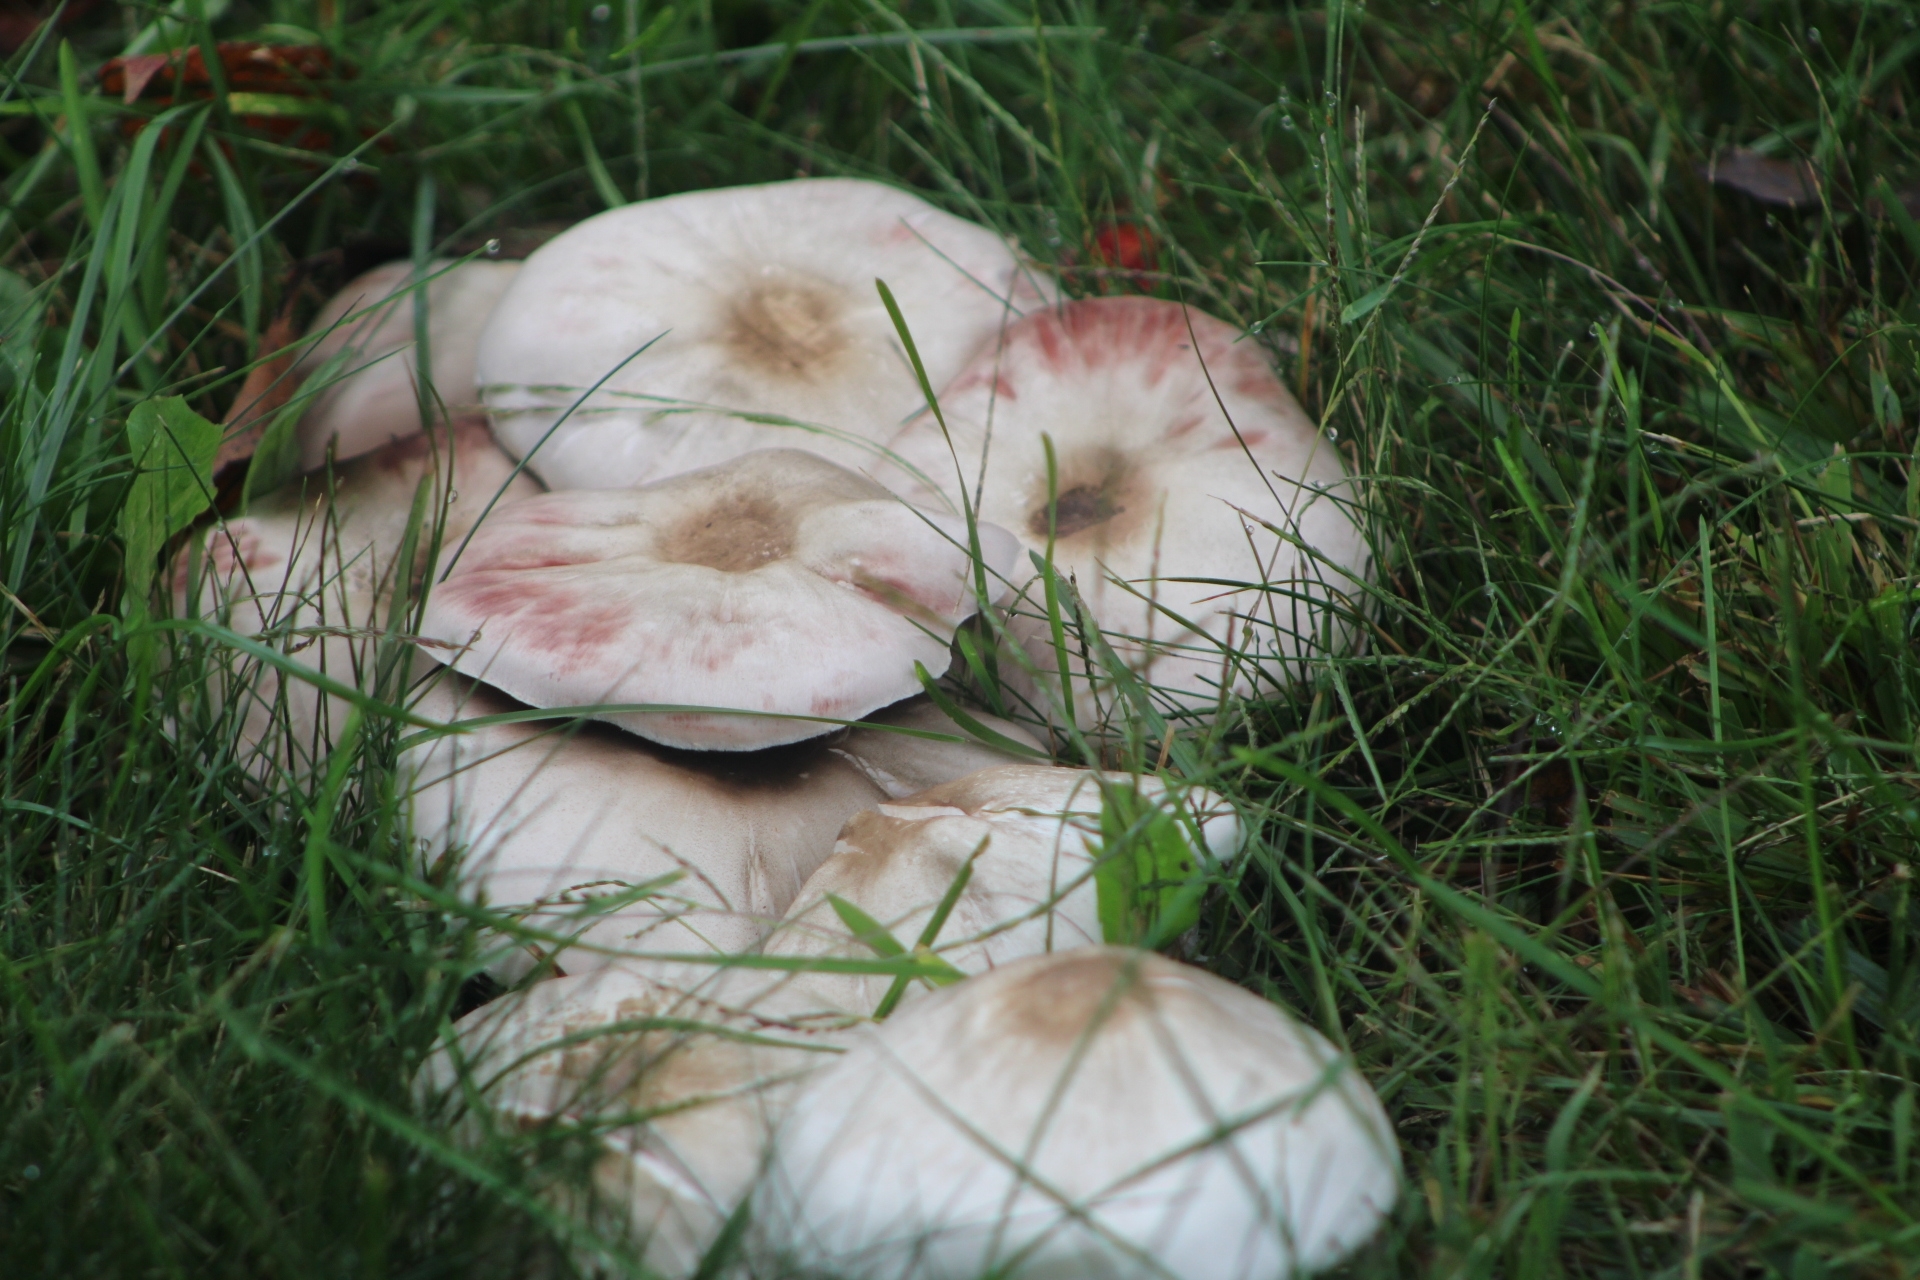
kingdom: Fungi
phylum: Basidiomycota
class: Agaricomycetes
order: Agaricales
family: Agaricaceae
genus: Agaricus
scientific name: Agaricus
